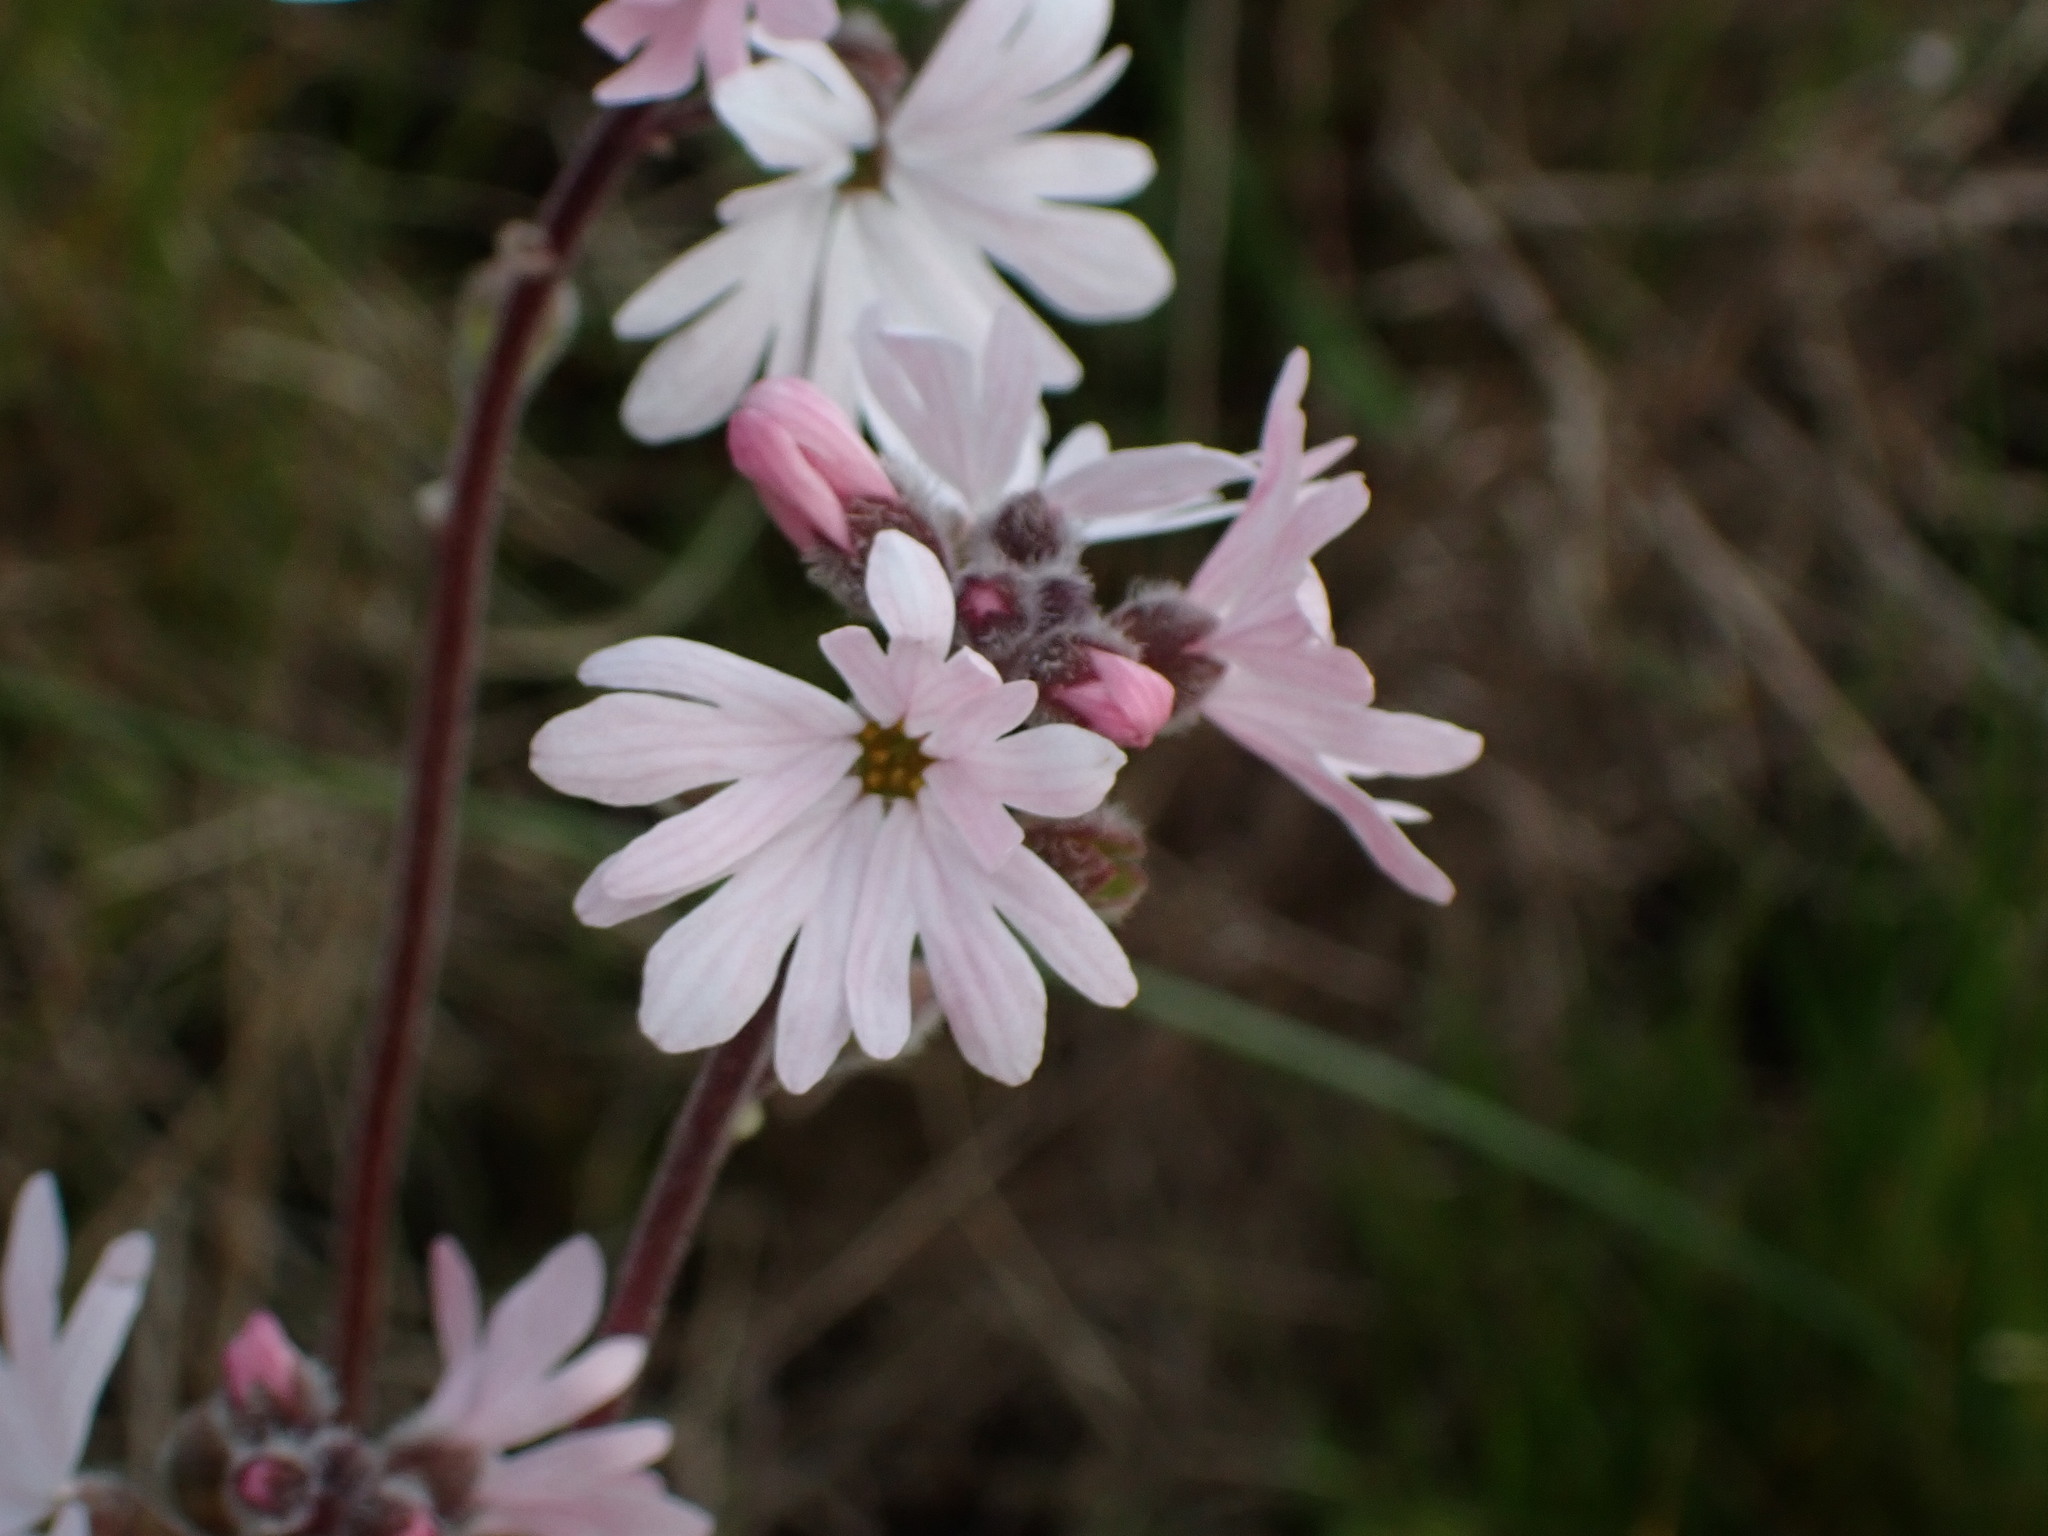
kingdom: Plantae
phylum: Tracheophyta
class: Magnoliopsida
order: Saxifragales
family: Saxifragaceae
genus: Lithophragma
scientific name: Lithophragma parviflorum
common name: Small-flowered fringe-cup
